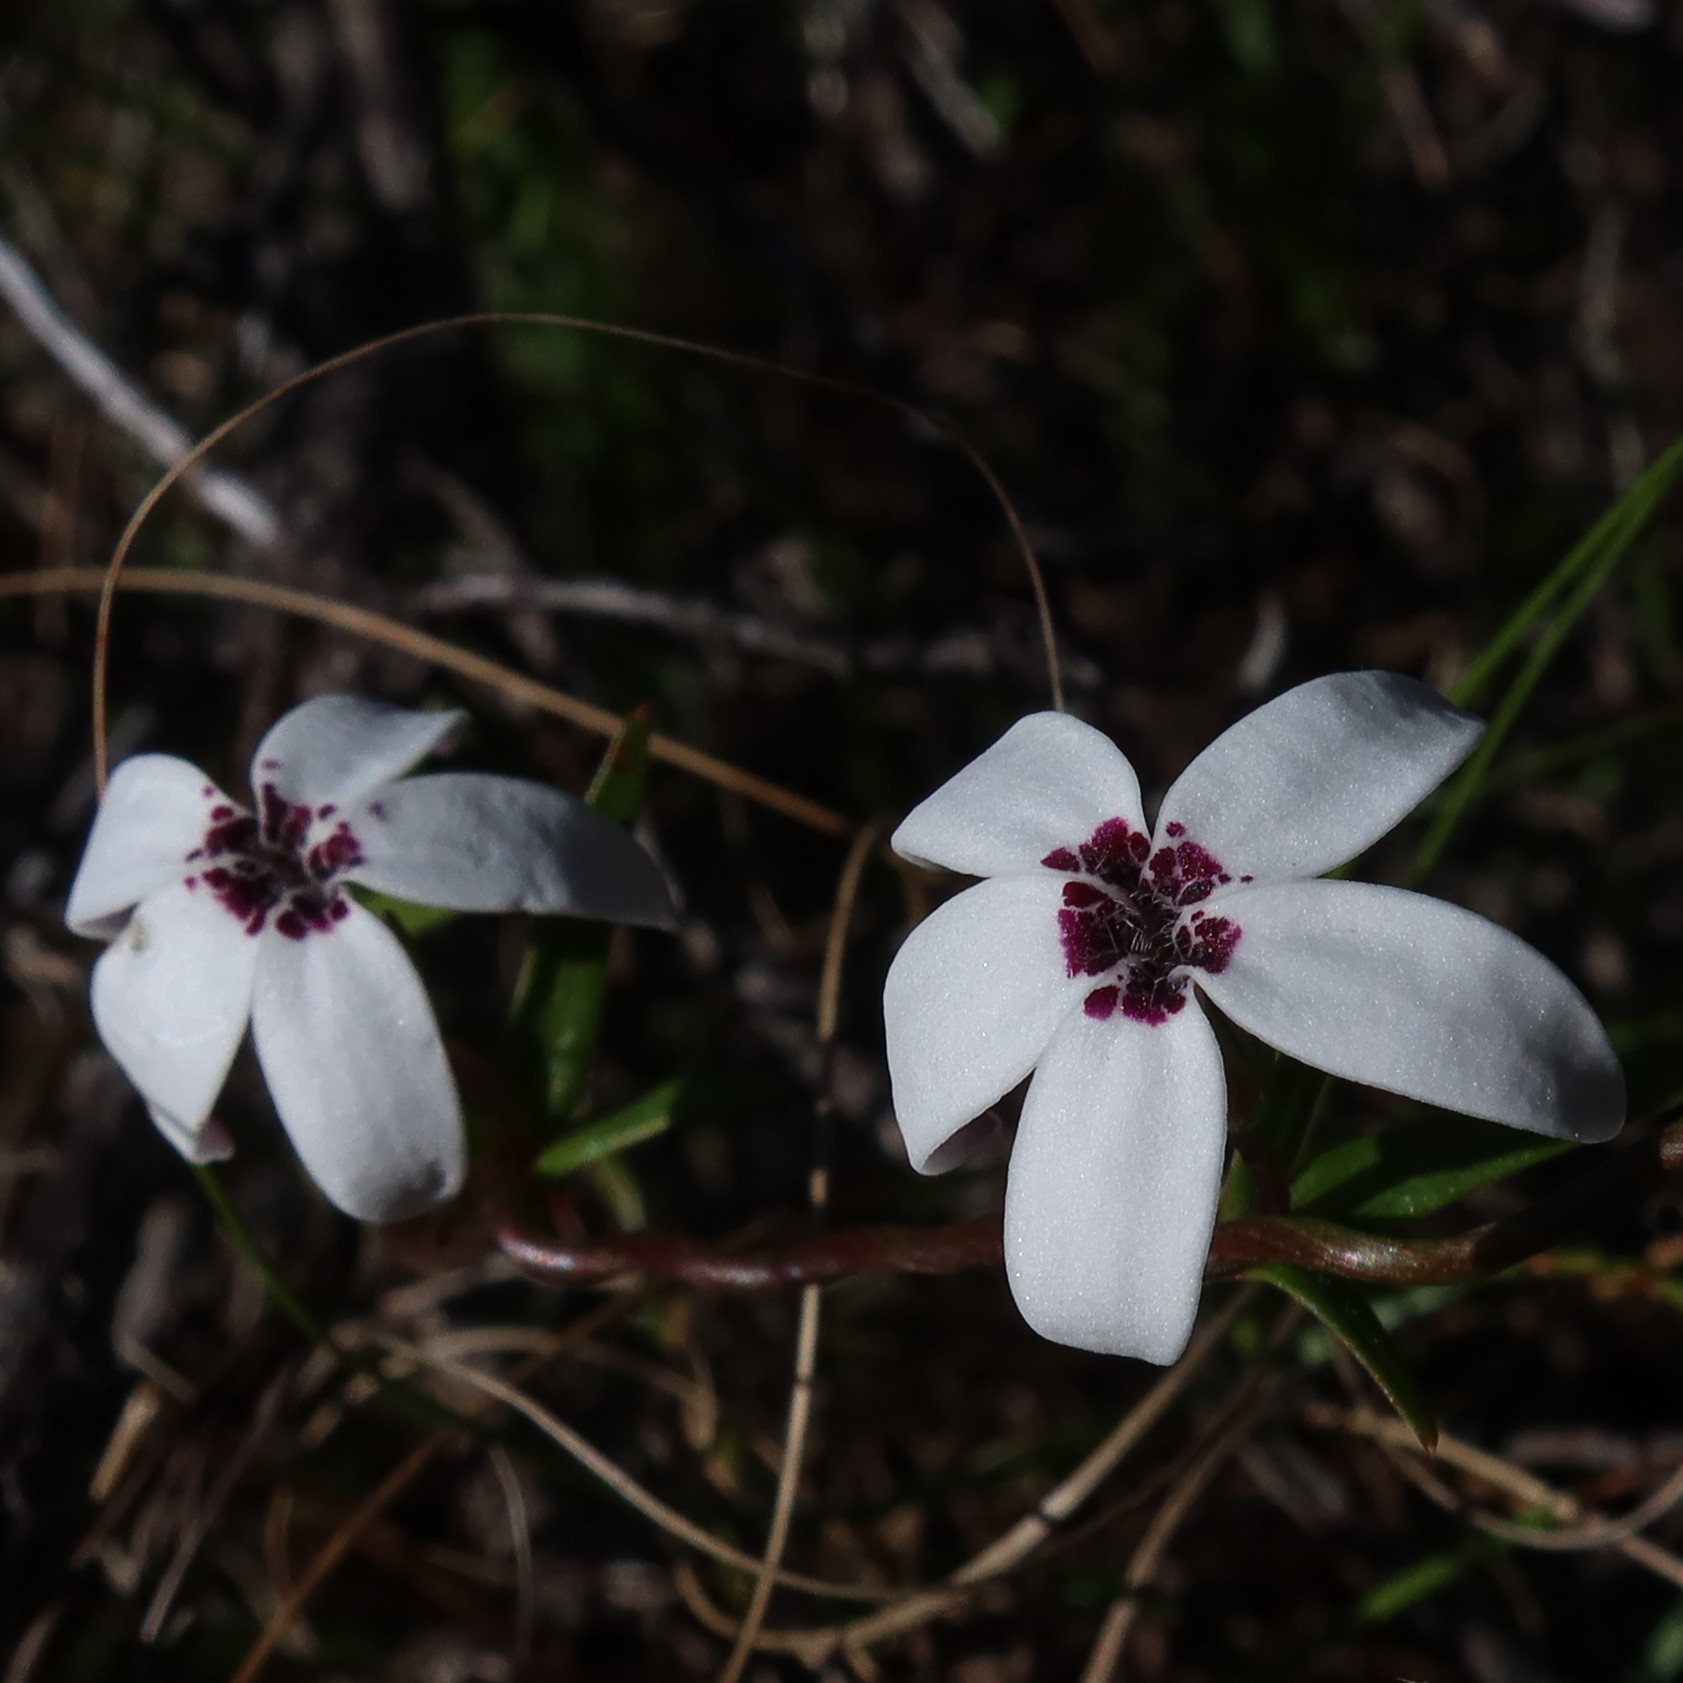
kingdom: Plantae
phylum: Tracheophyta
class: Magnoliopsida
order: Asterales
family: Campanulaceae
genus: Cyphia
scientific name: Cyphia volubilis
